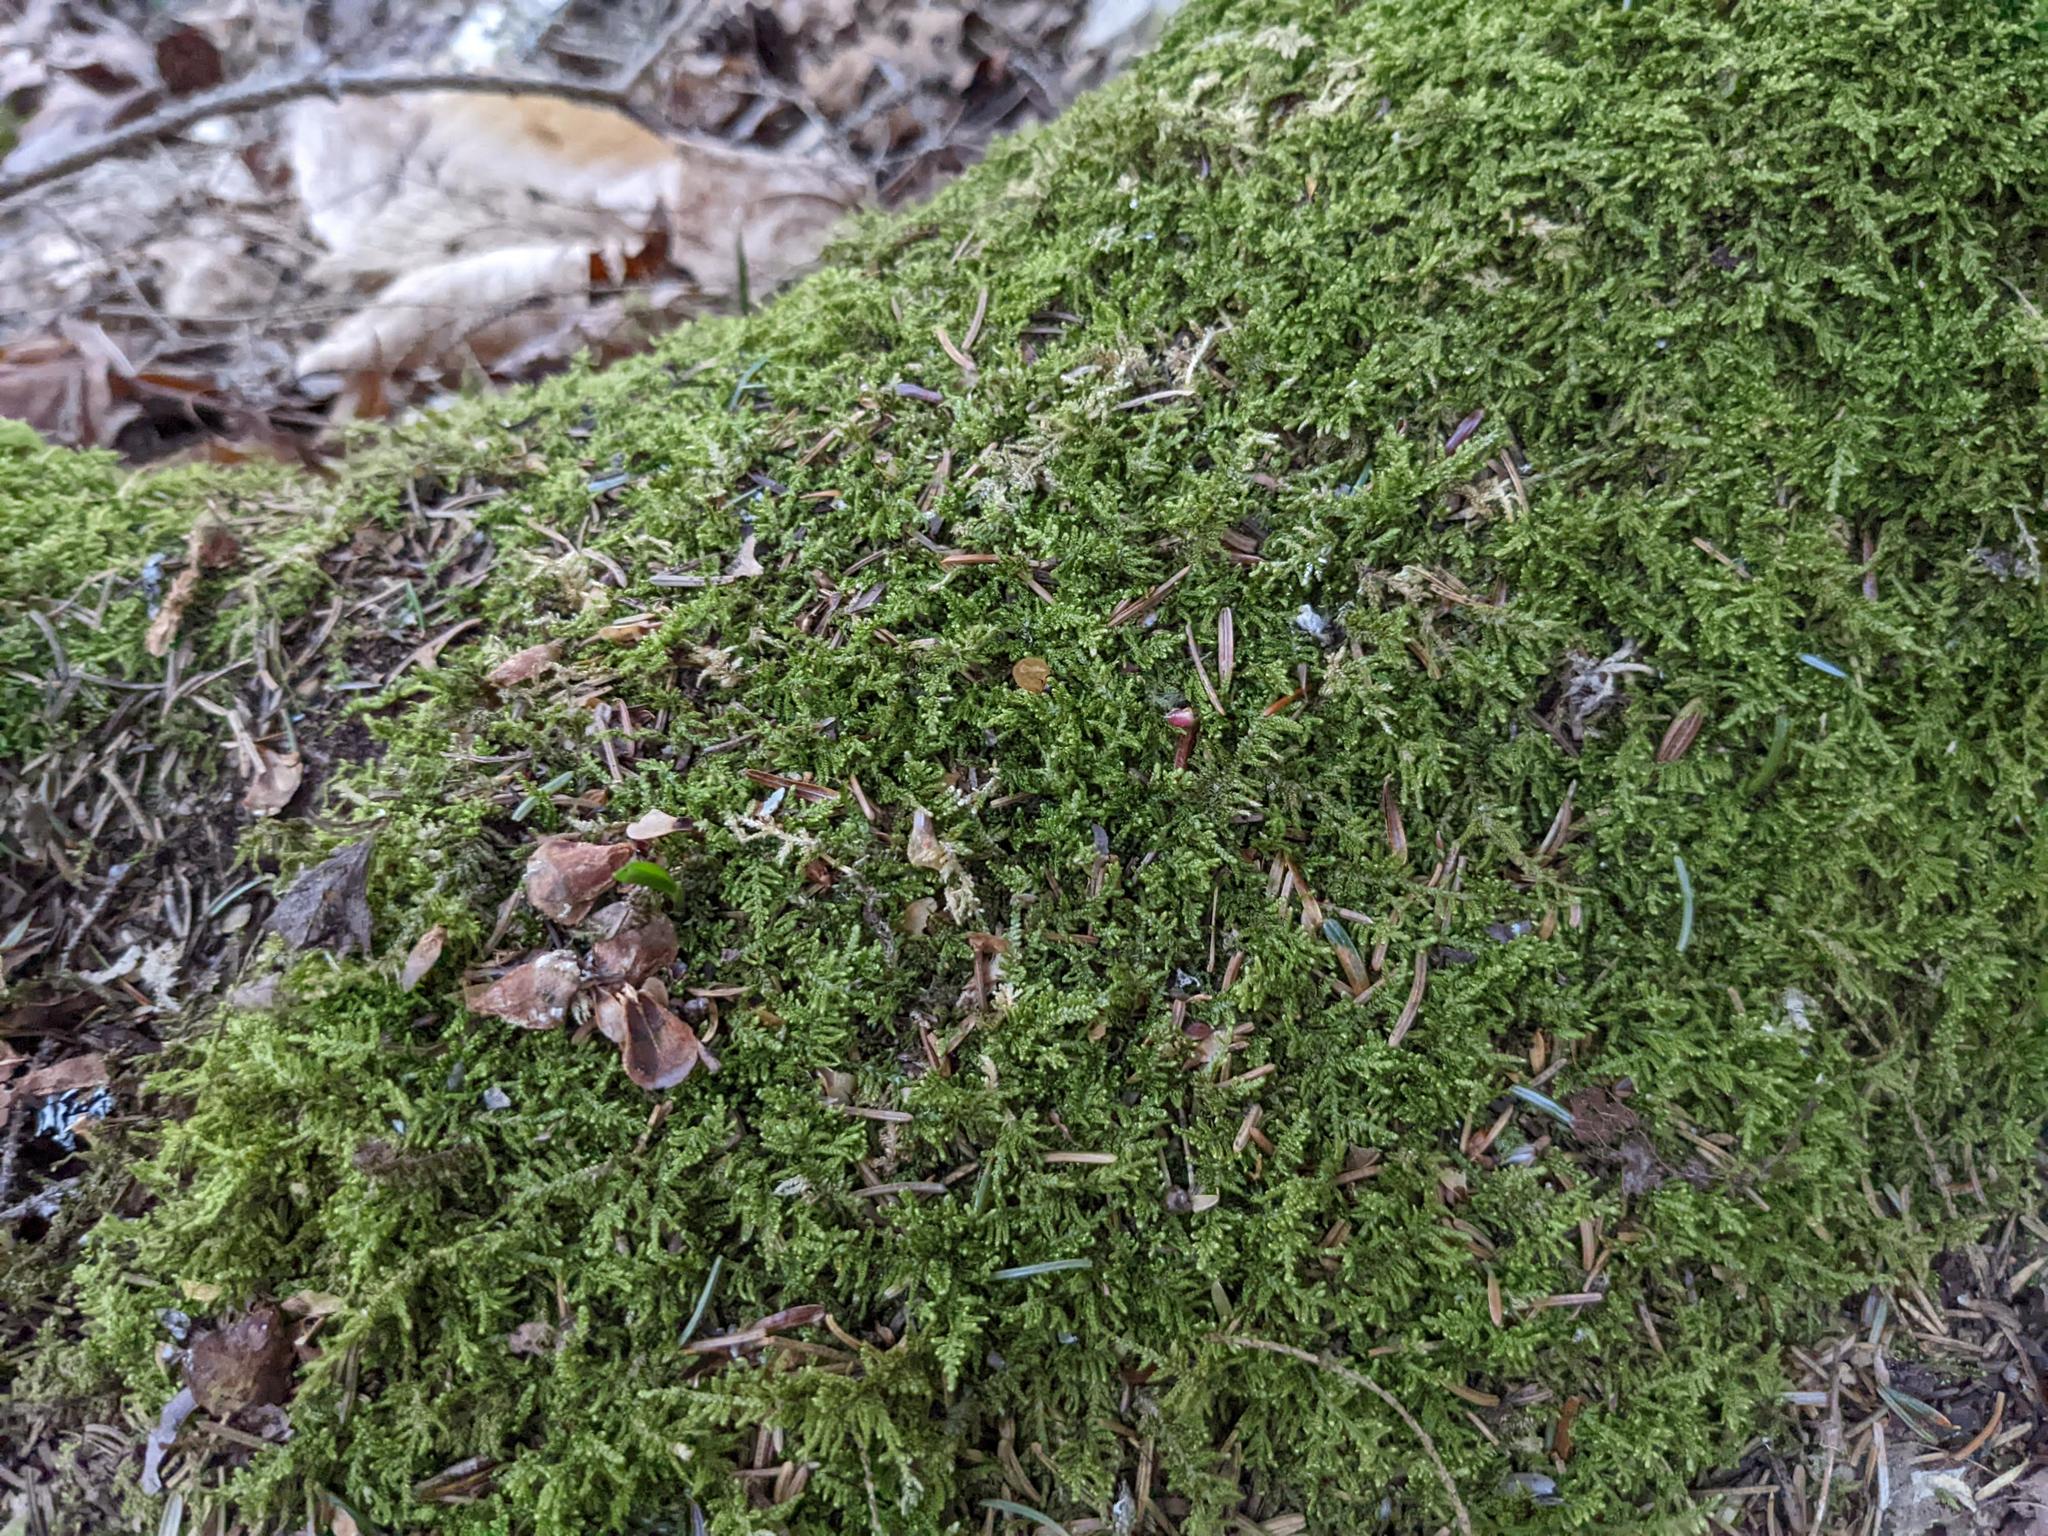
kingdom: Plantae
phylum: Bryophyta
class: Bryopsida
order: Hypnales
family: Callicladiaceae
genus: Callicladium
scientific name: Callicladium imponens
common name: Brocade moss
